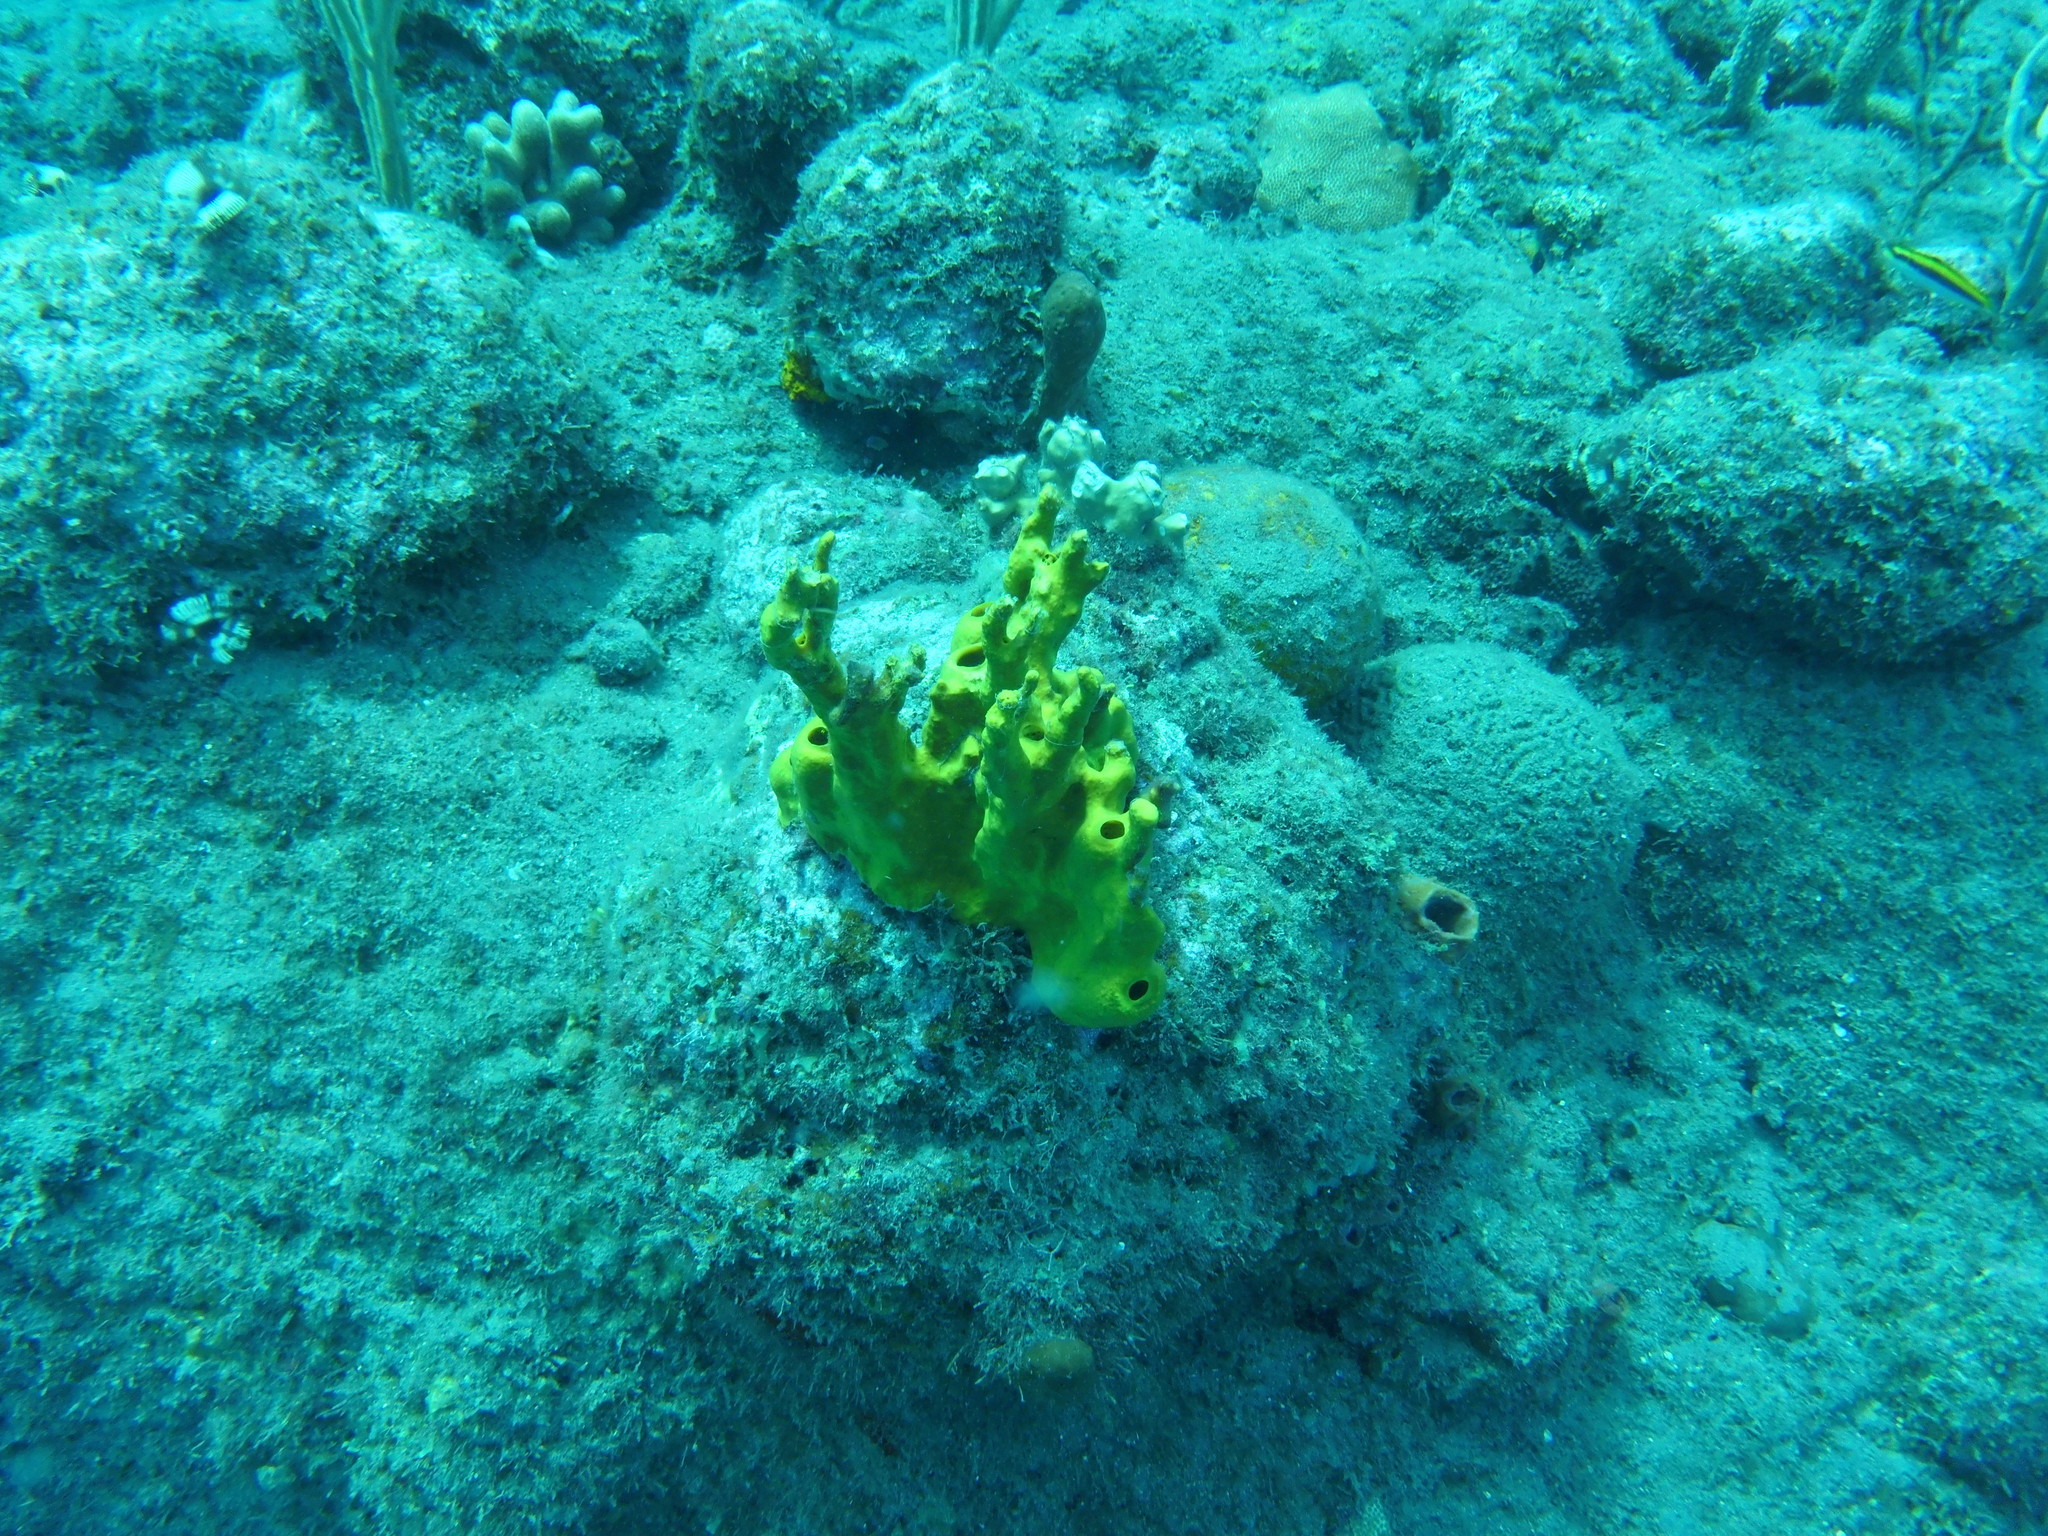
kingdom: Animalia
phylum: Porifera
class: Demospongiae
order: Verongiida
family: Aplysinidae
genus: Aplysina
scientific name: Aplysina insularis
